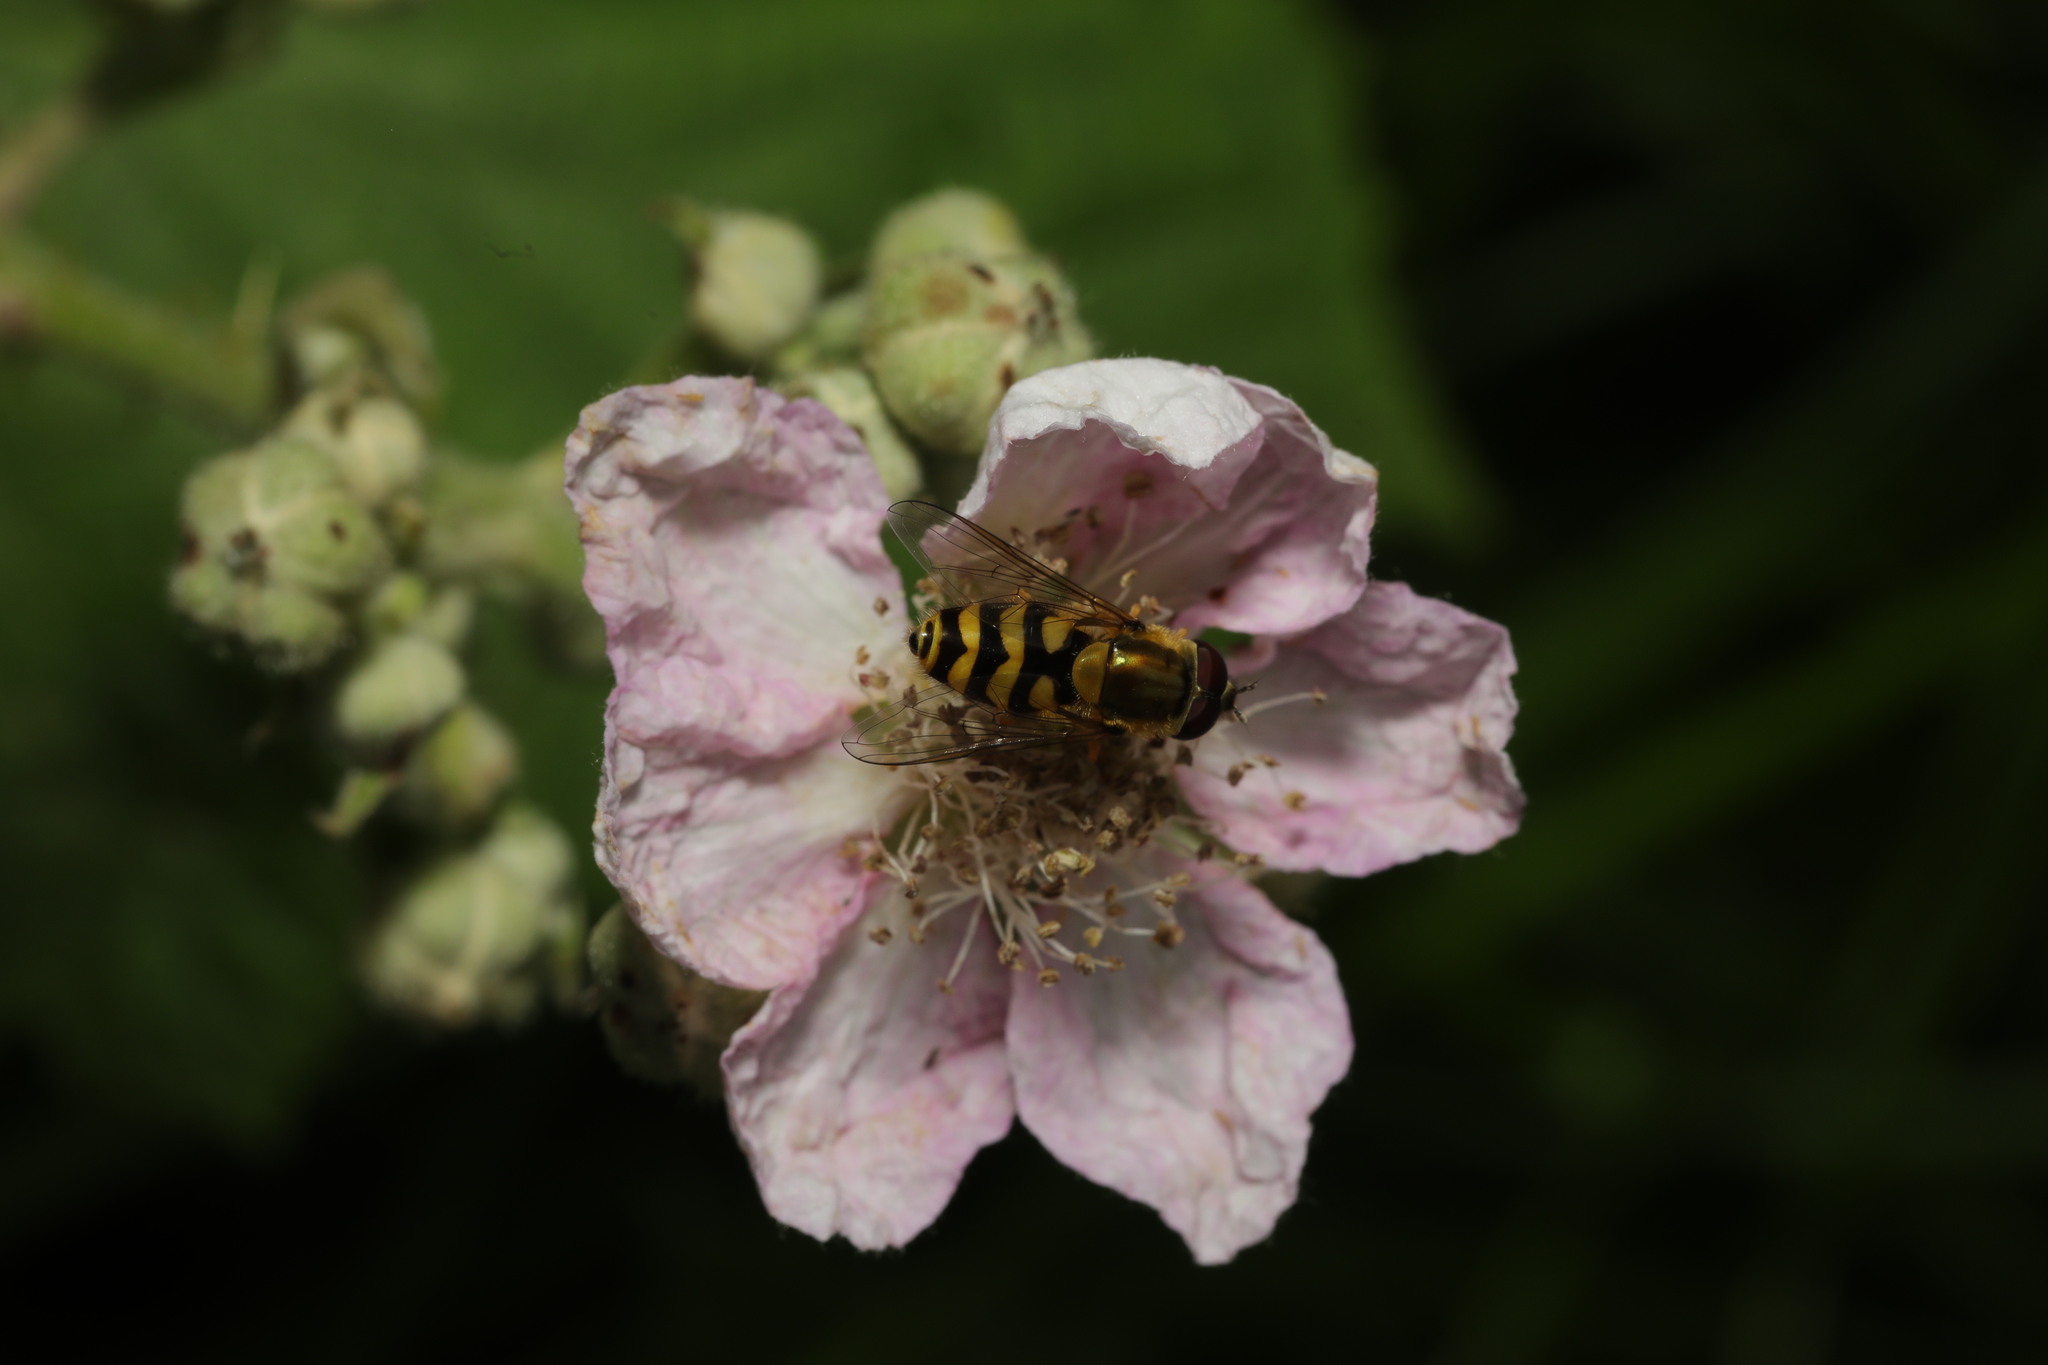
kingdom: Animalia
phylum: Arthropoda
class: Insecta
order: Diptera
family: Syrphidae
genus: Syrphus
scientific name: Syrphus
